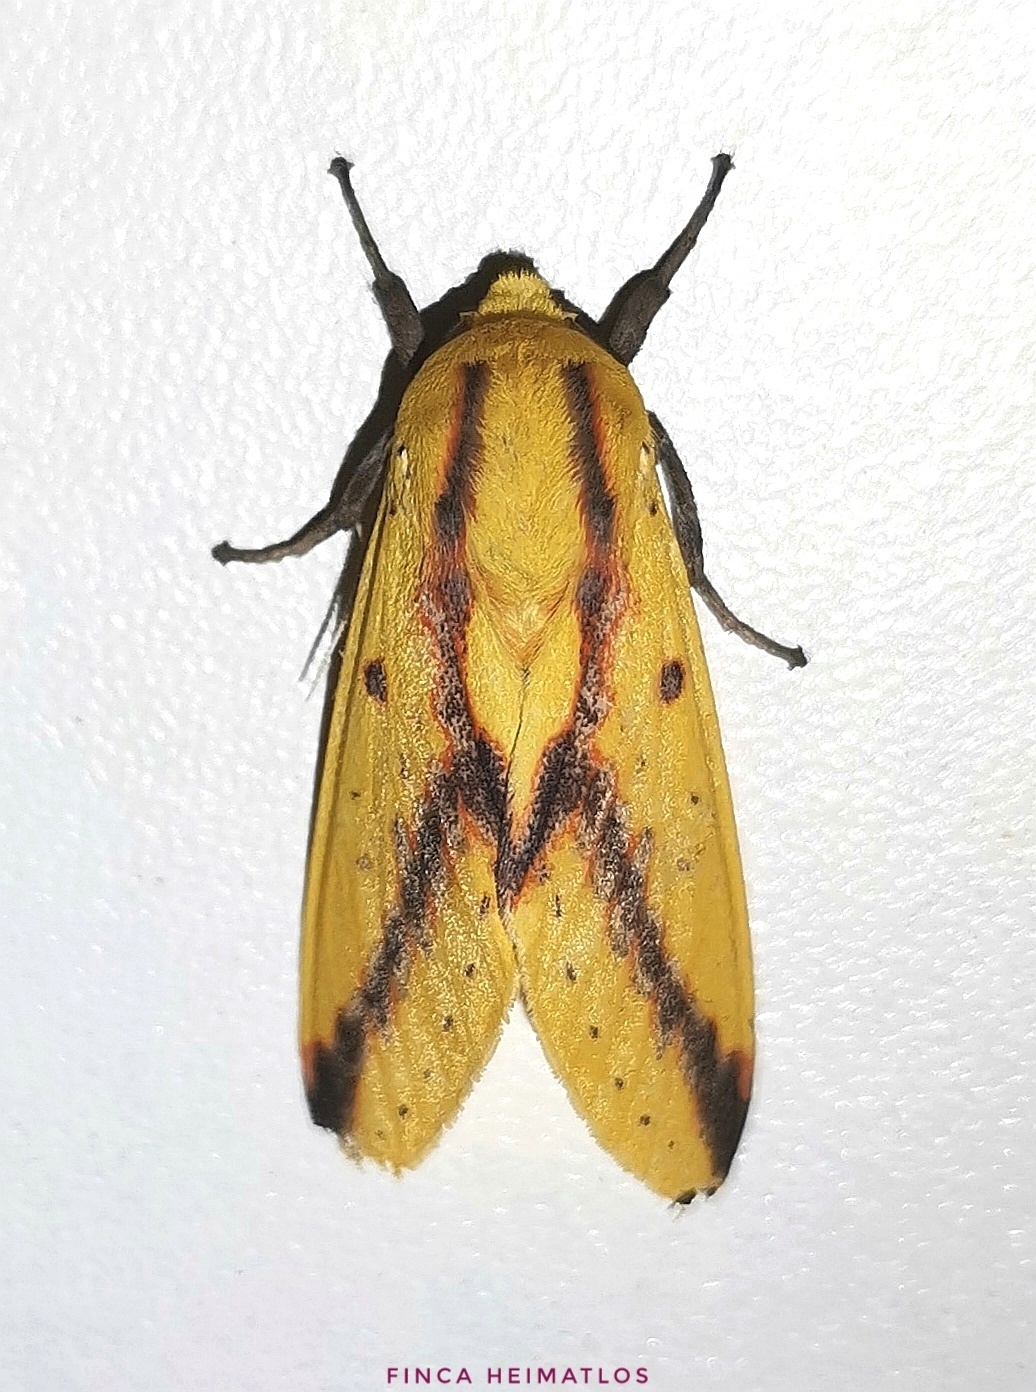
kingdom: Animalia
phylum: Arthropoda
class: Insecta
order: Lepidoptera
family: Erebidae
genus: Symphlebia
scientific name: Symphlebia suanus
